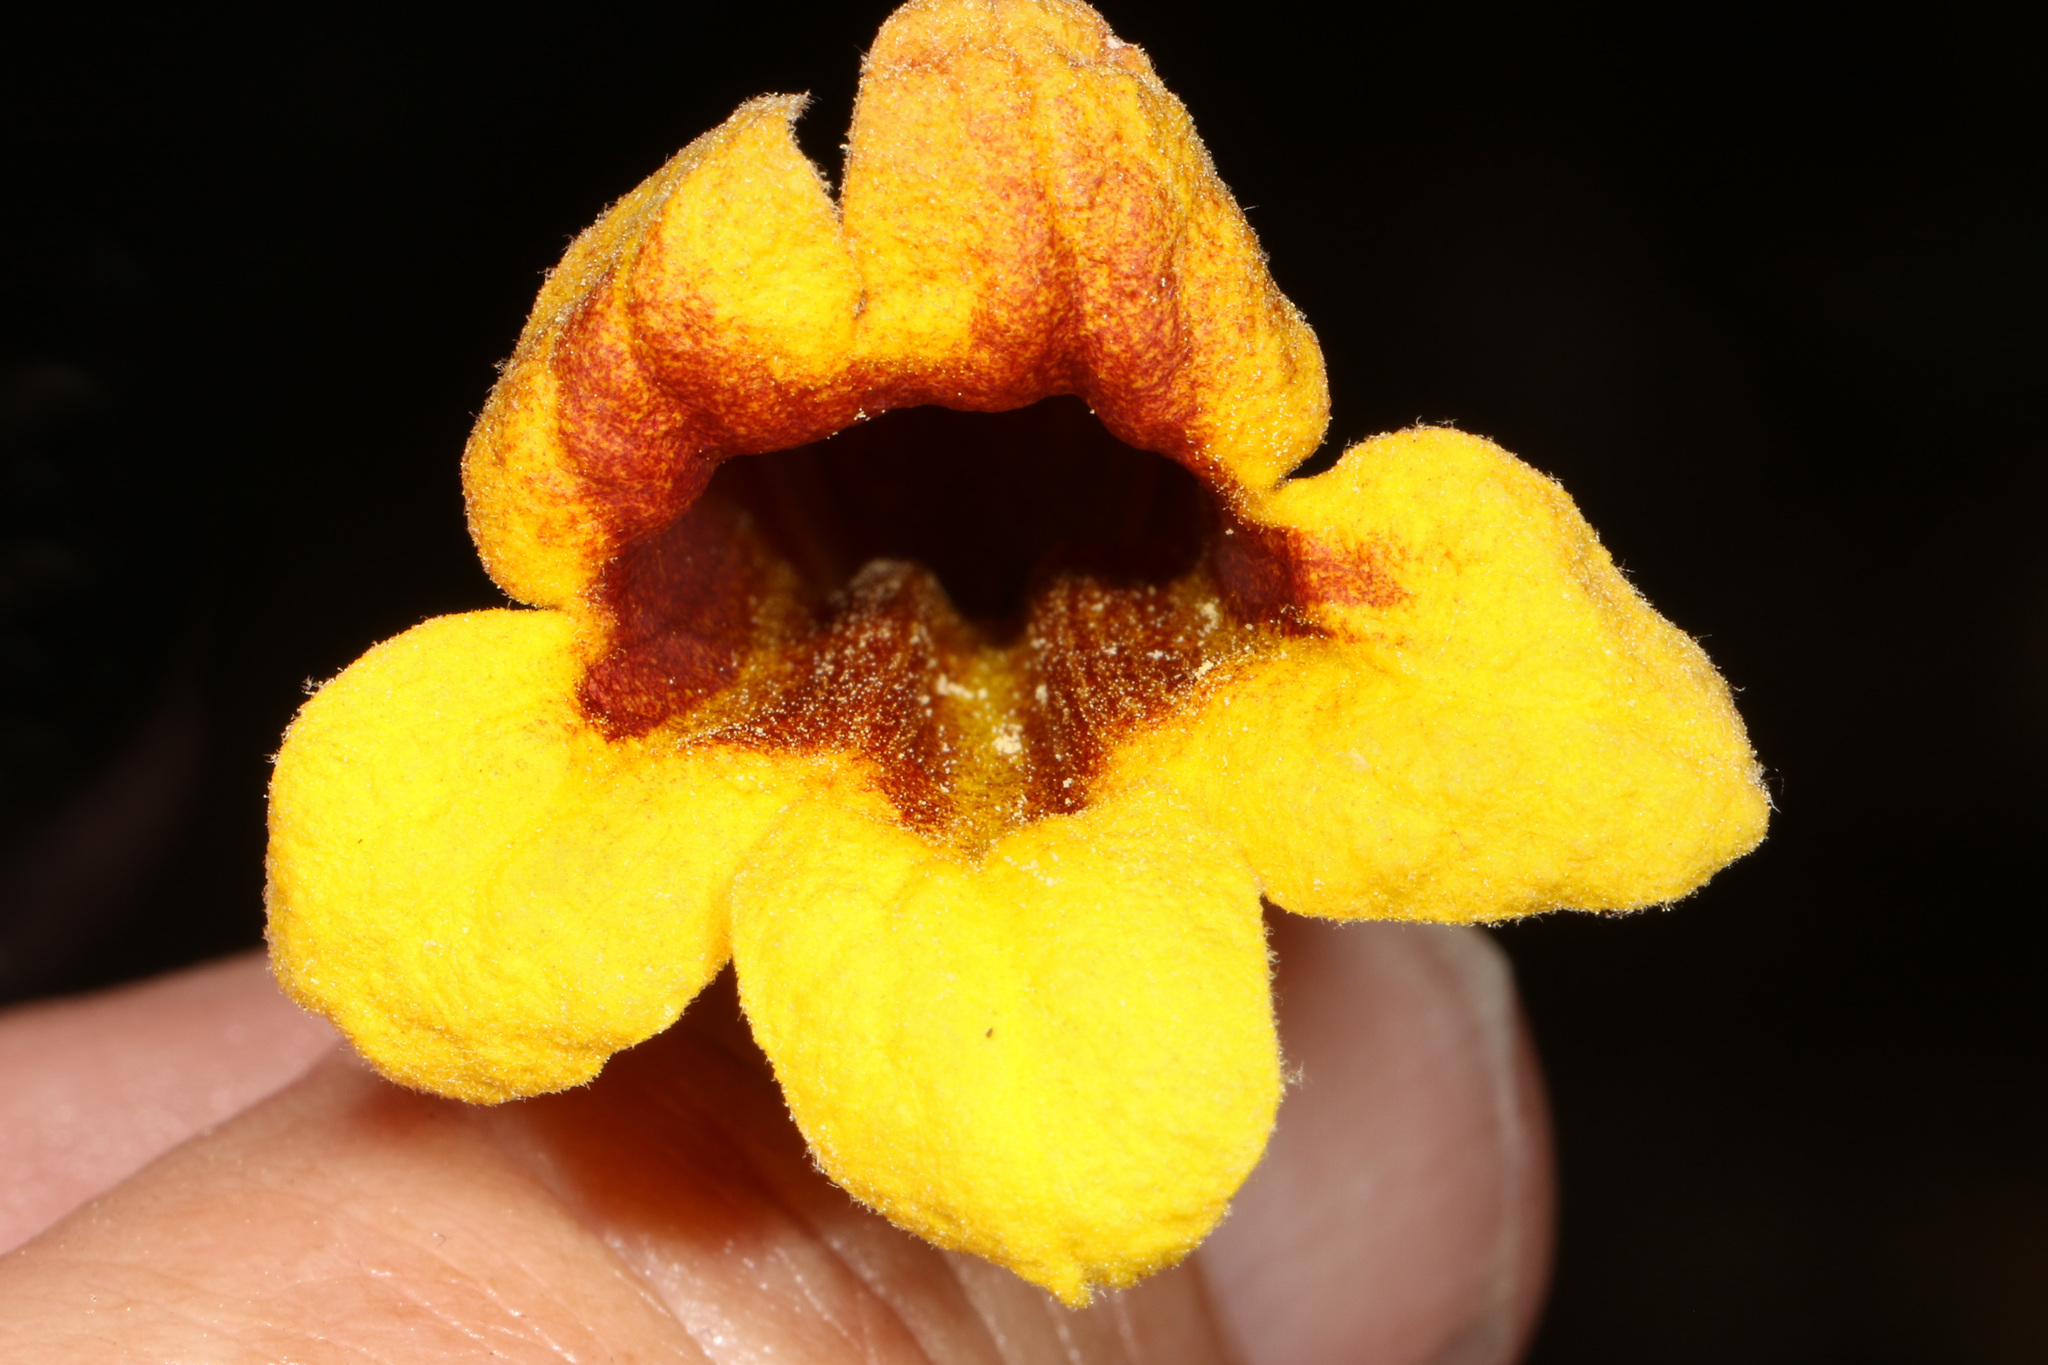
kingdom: Plantae
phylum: Tracheophyta
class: Magnoliopsida
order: Lamiales
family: Bignoniaceae
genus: Bignonia
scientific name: Bignonia capreolata
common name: Crossvine
